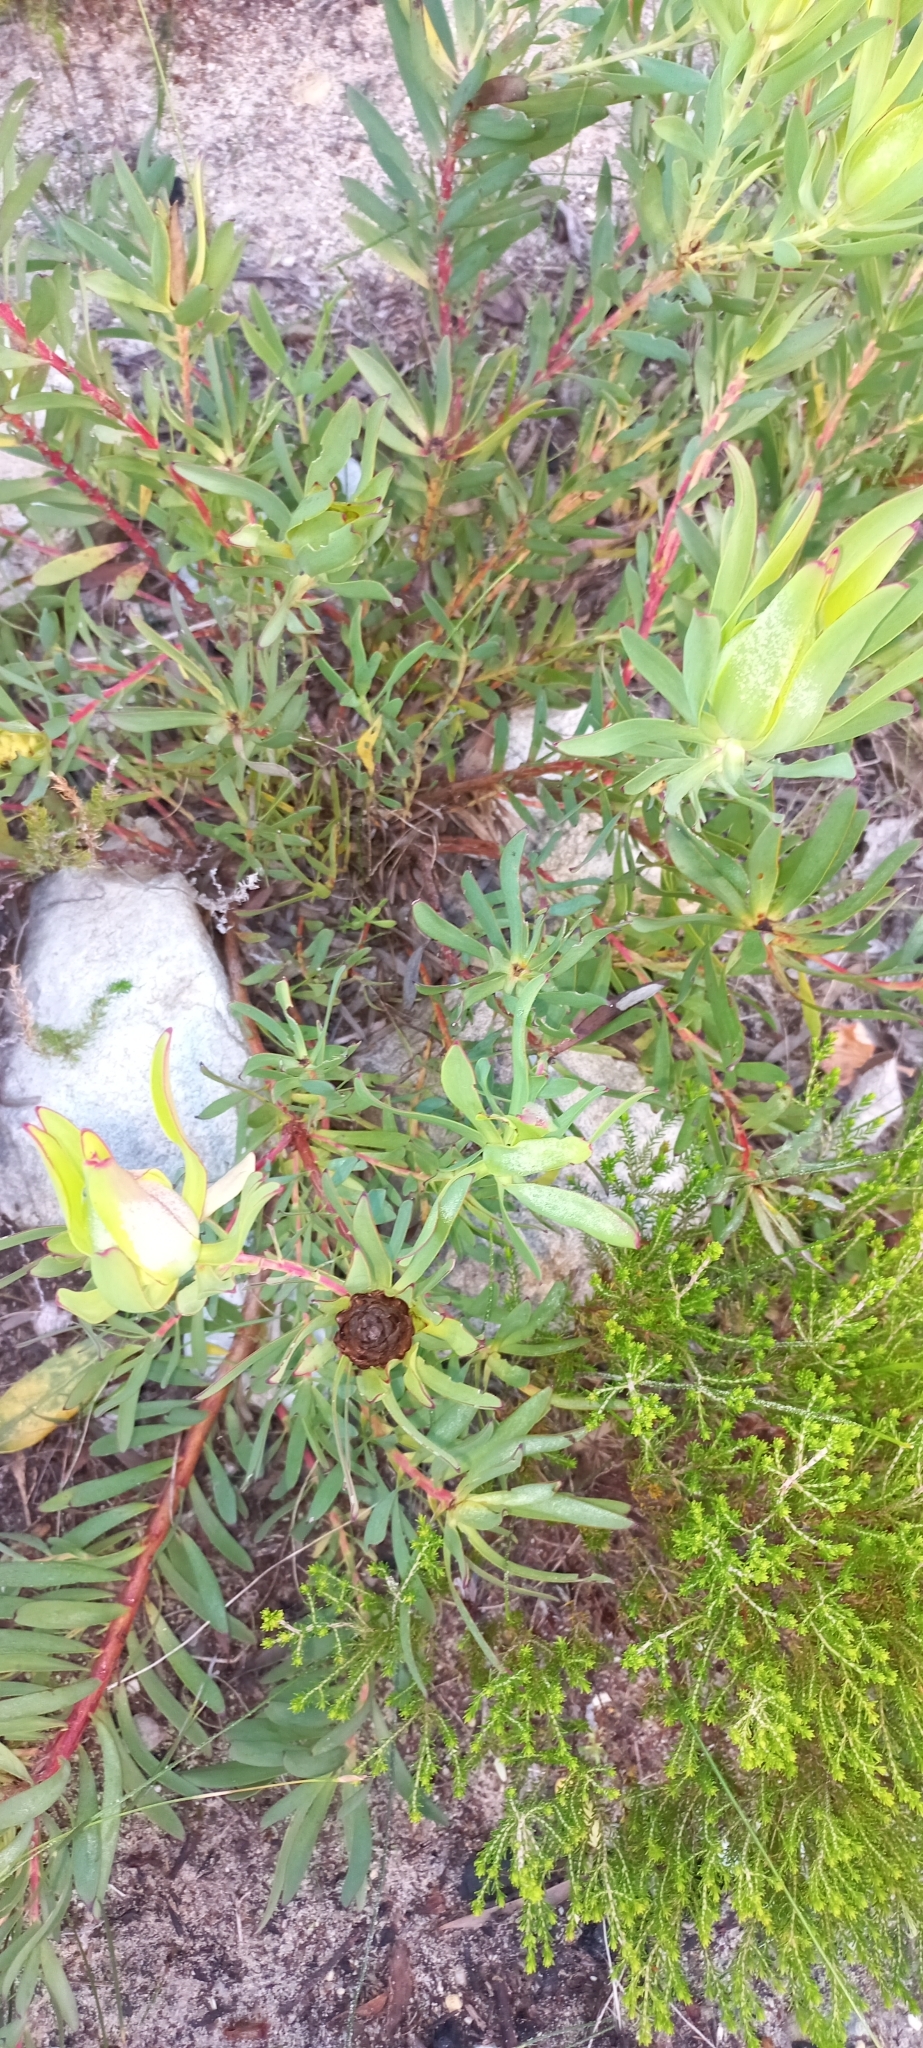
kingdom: Plantae
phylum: Tracheophyta
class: Magnoliopsida
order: Proteales
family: Proteaceae
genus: Leucadendron
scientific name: Leucadendron salignum
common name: Common sunshine conebush
